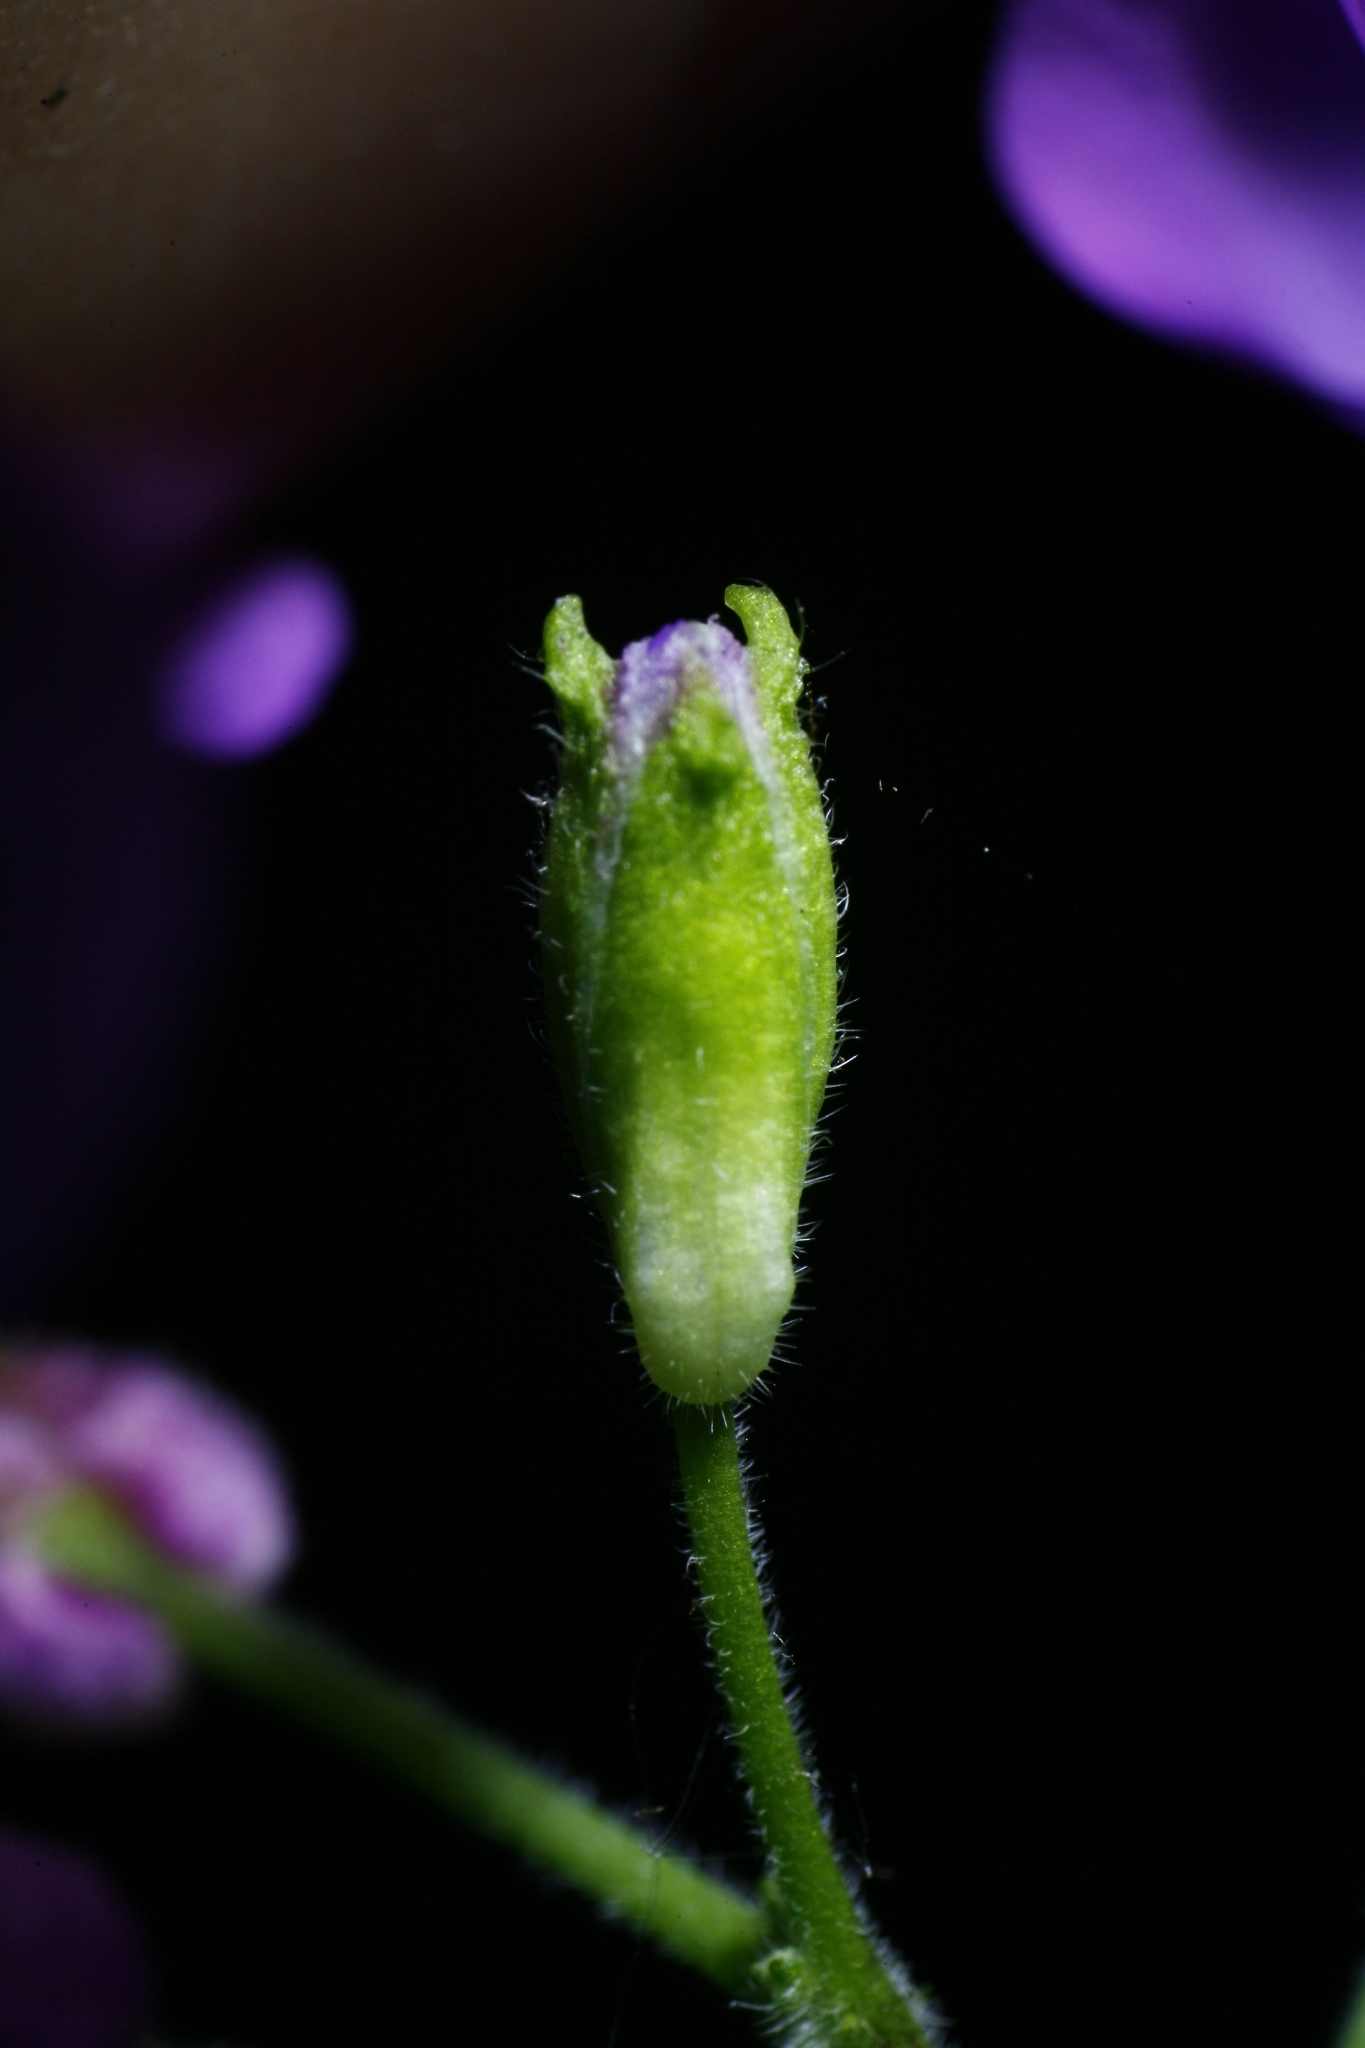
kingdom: Plantae
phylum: Tracheophyta
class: Magnoliopsida
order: Brassicales
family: Brassicaceae
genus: Lunaria
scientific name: Lunaria annua
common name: Honesty
